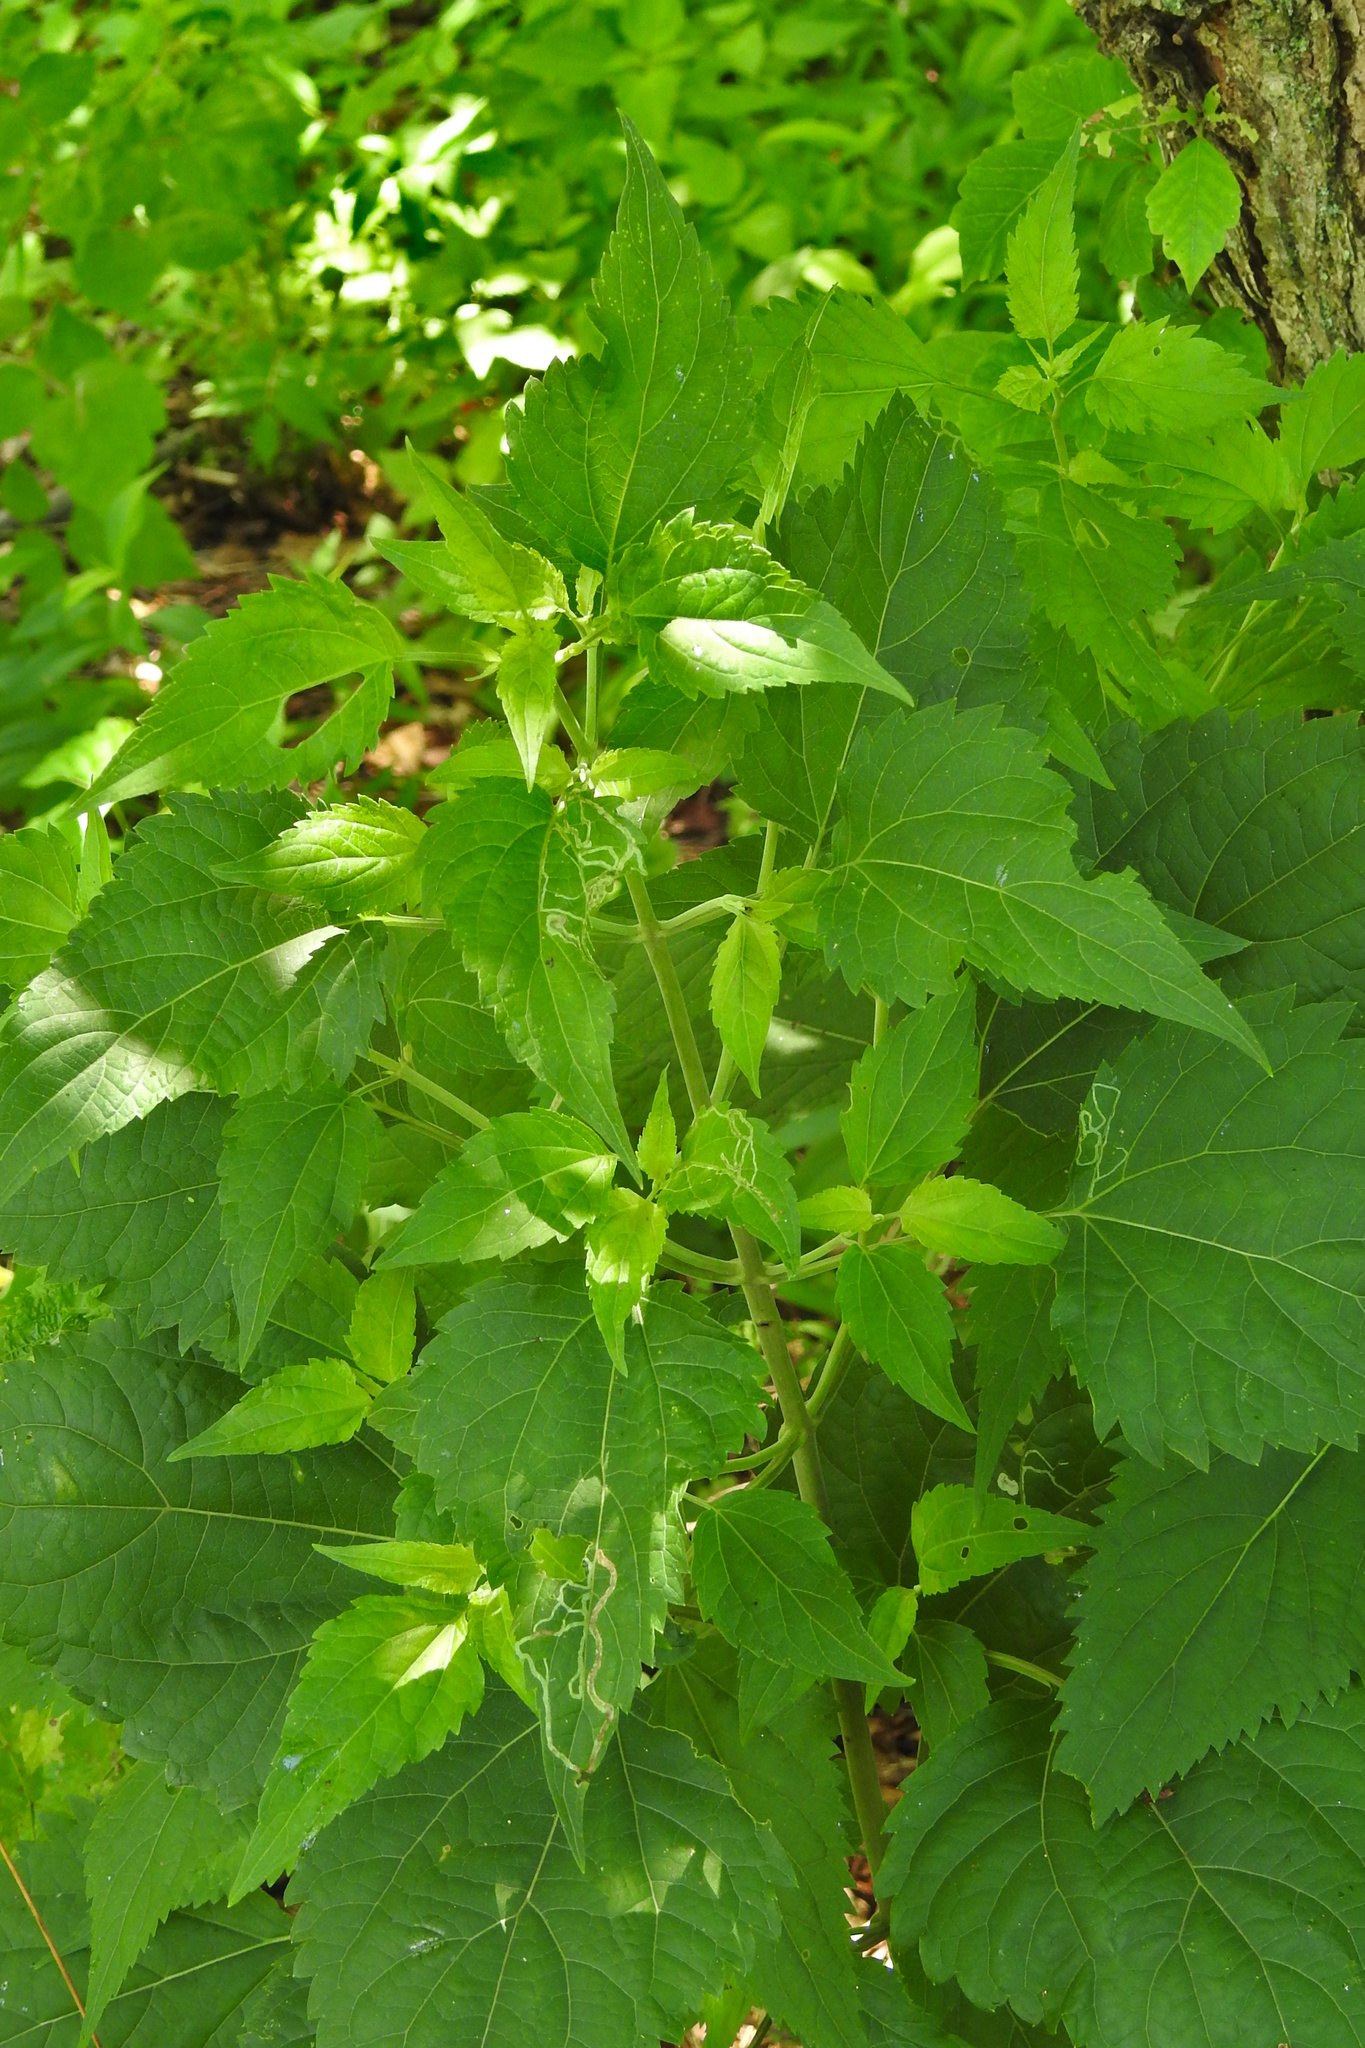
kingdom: Plantae
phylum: Tracheophyta
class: Magnoliopsida
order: Asterales
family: Asteraceae
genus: Ageratina
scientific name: Ageratina altissima
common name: White snakeroot
